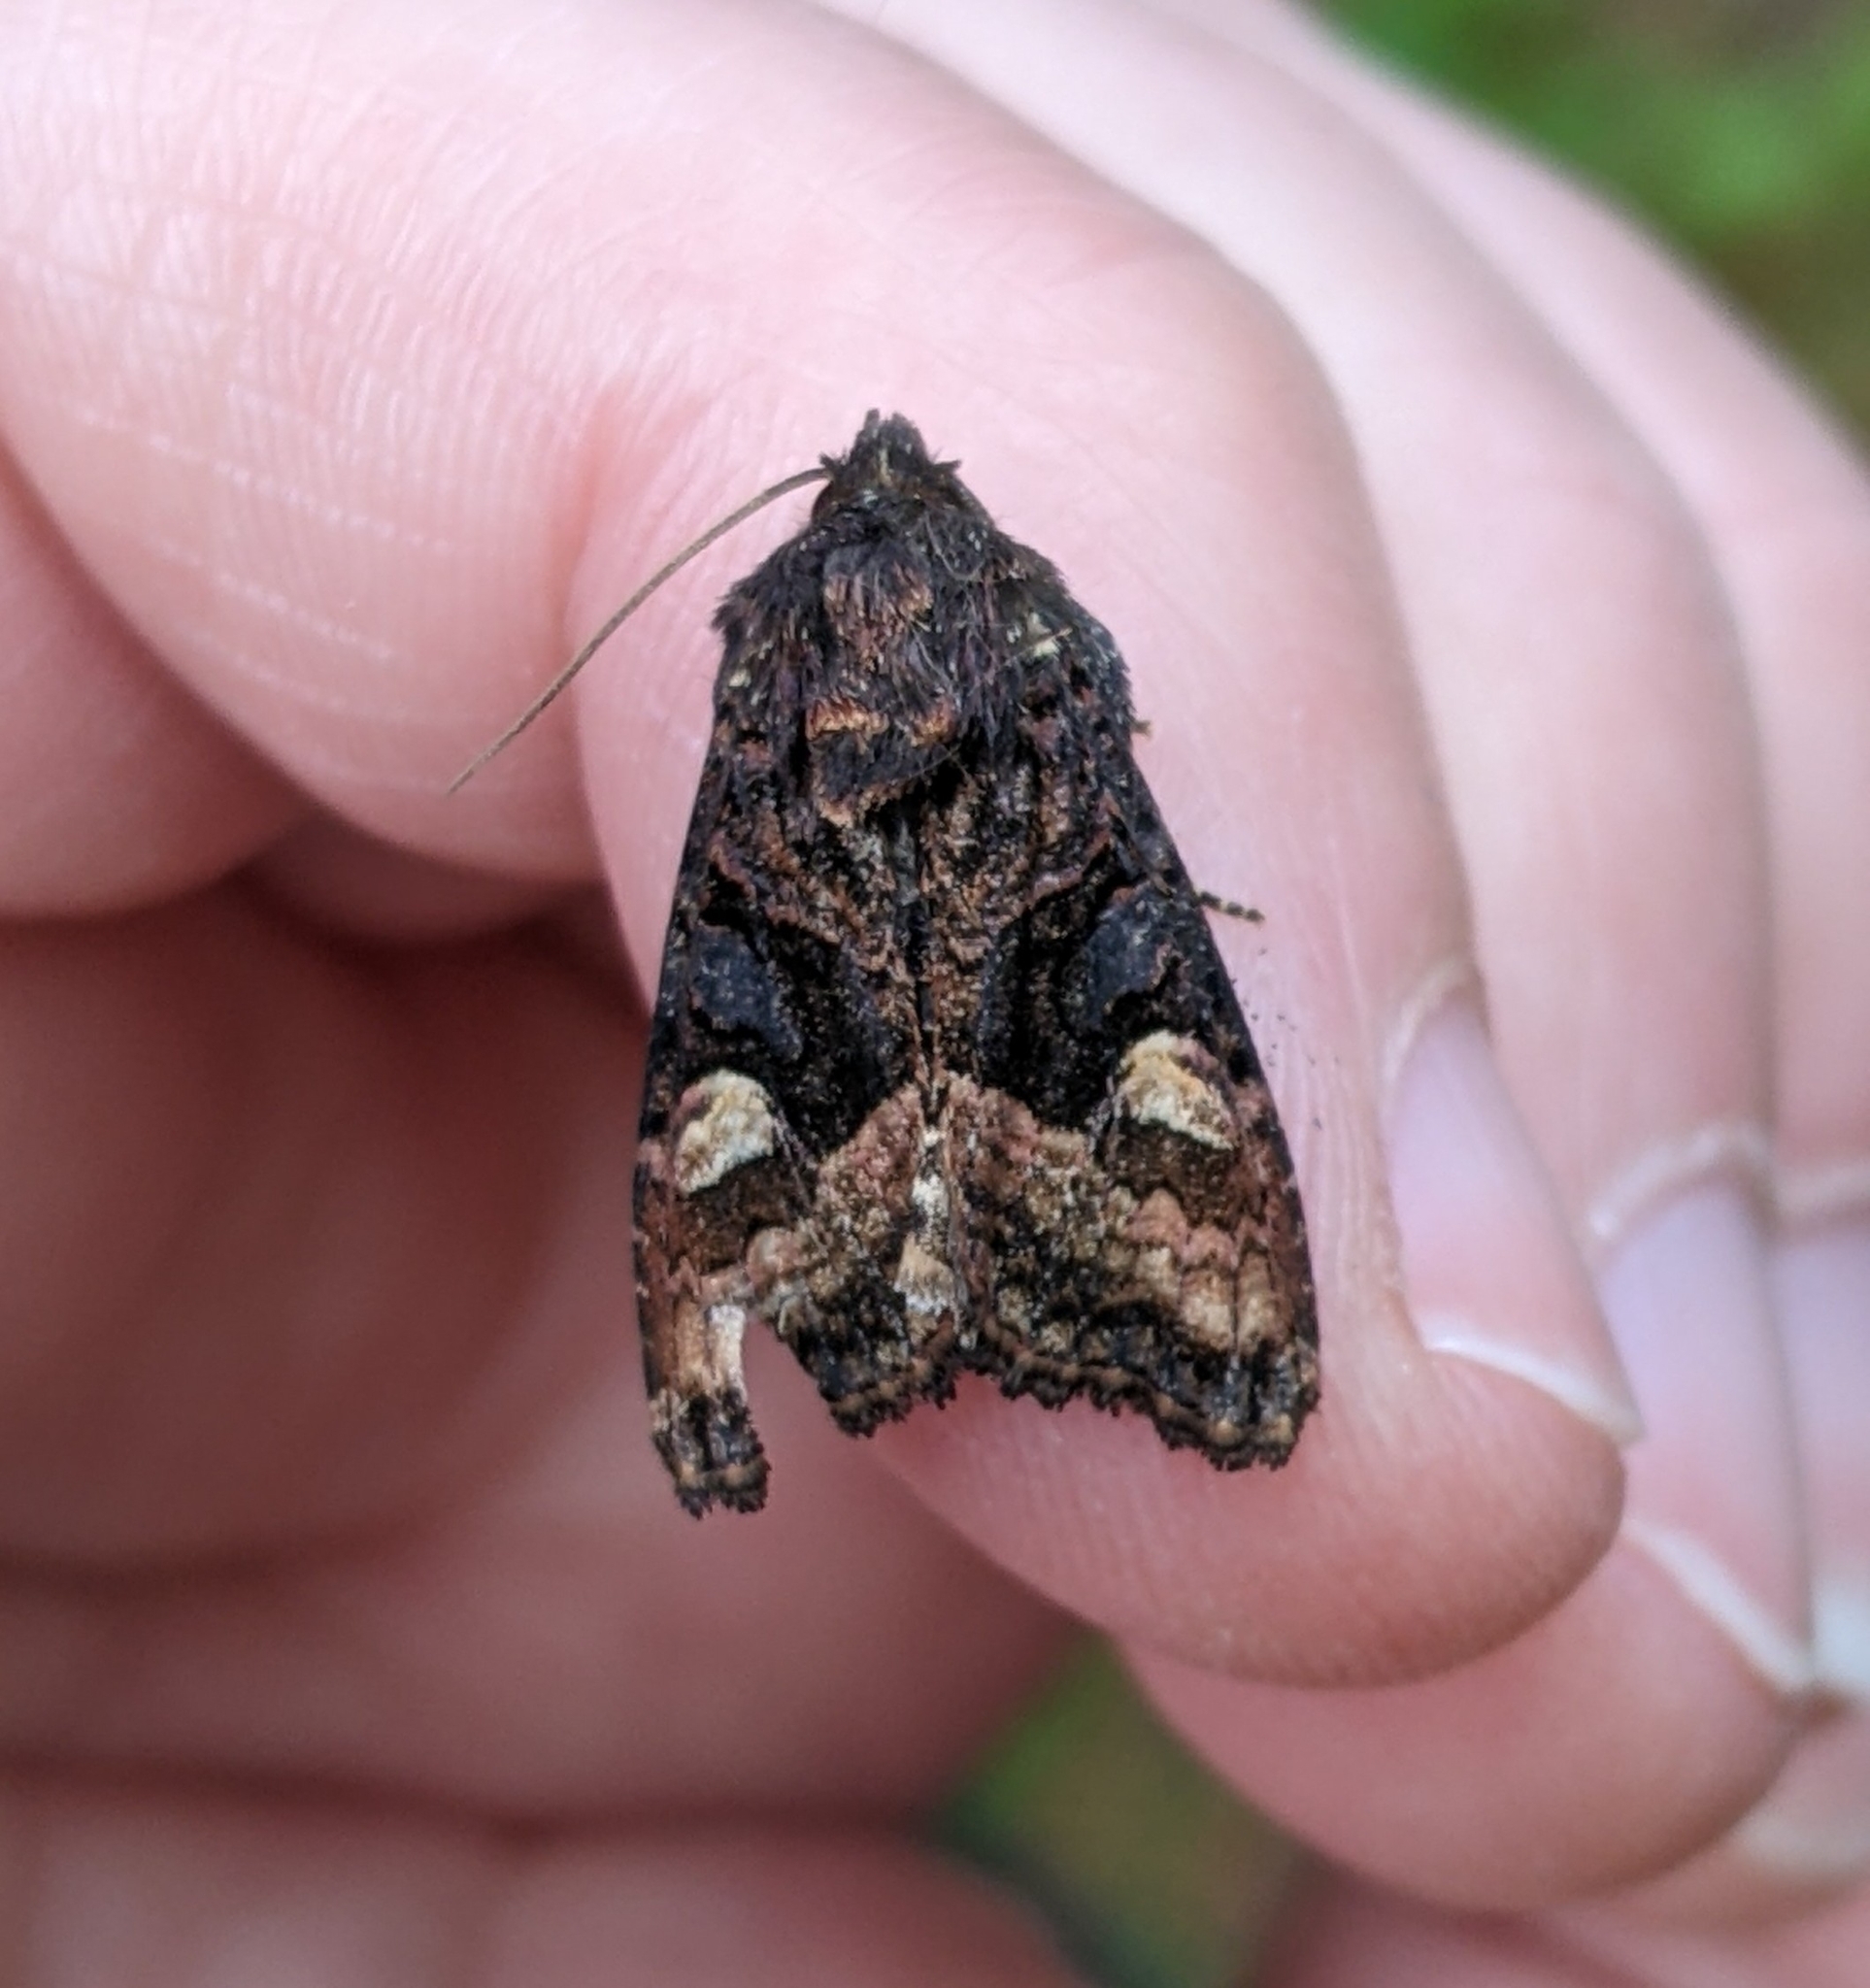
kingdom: Animalia
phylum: Arthropoda
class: Insecta
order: Lepidoptera
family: Noctuidae
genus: Euplexia
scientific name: Euplexia benesimilis
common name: American angle shades
